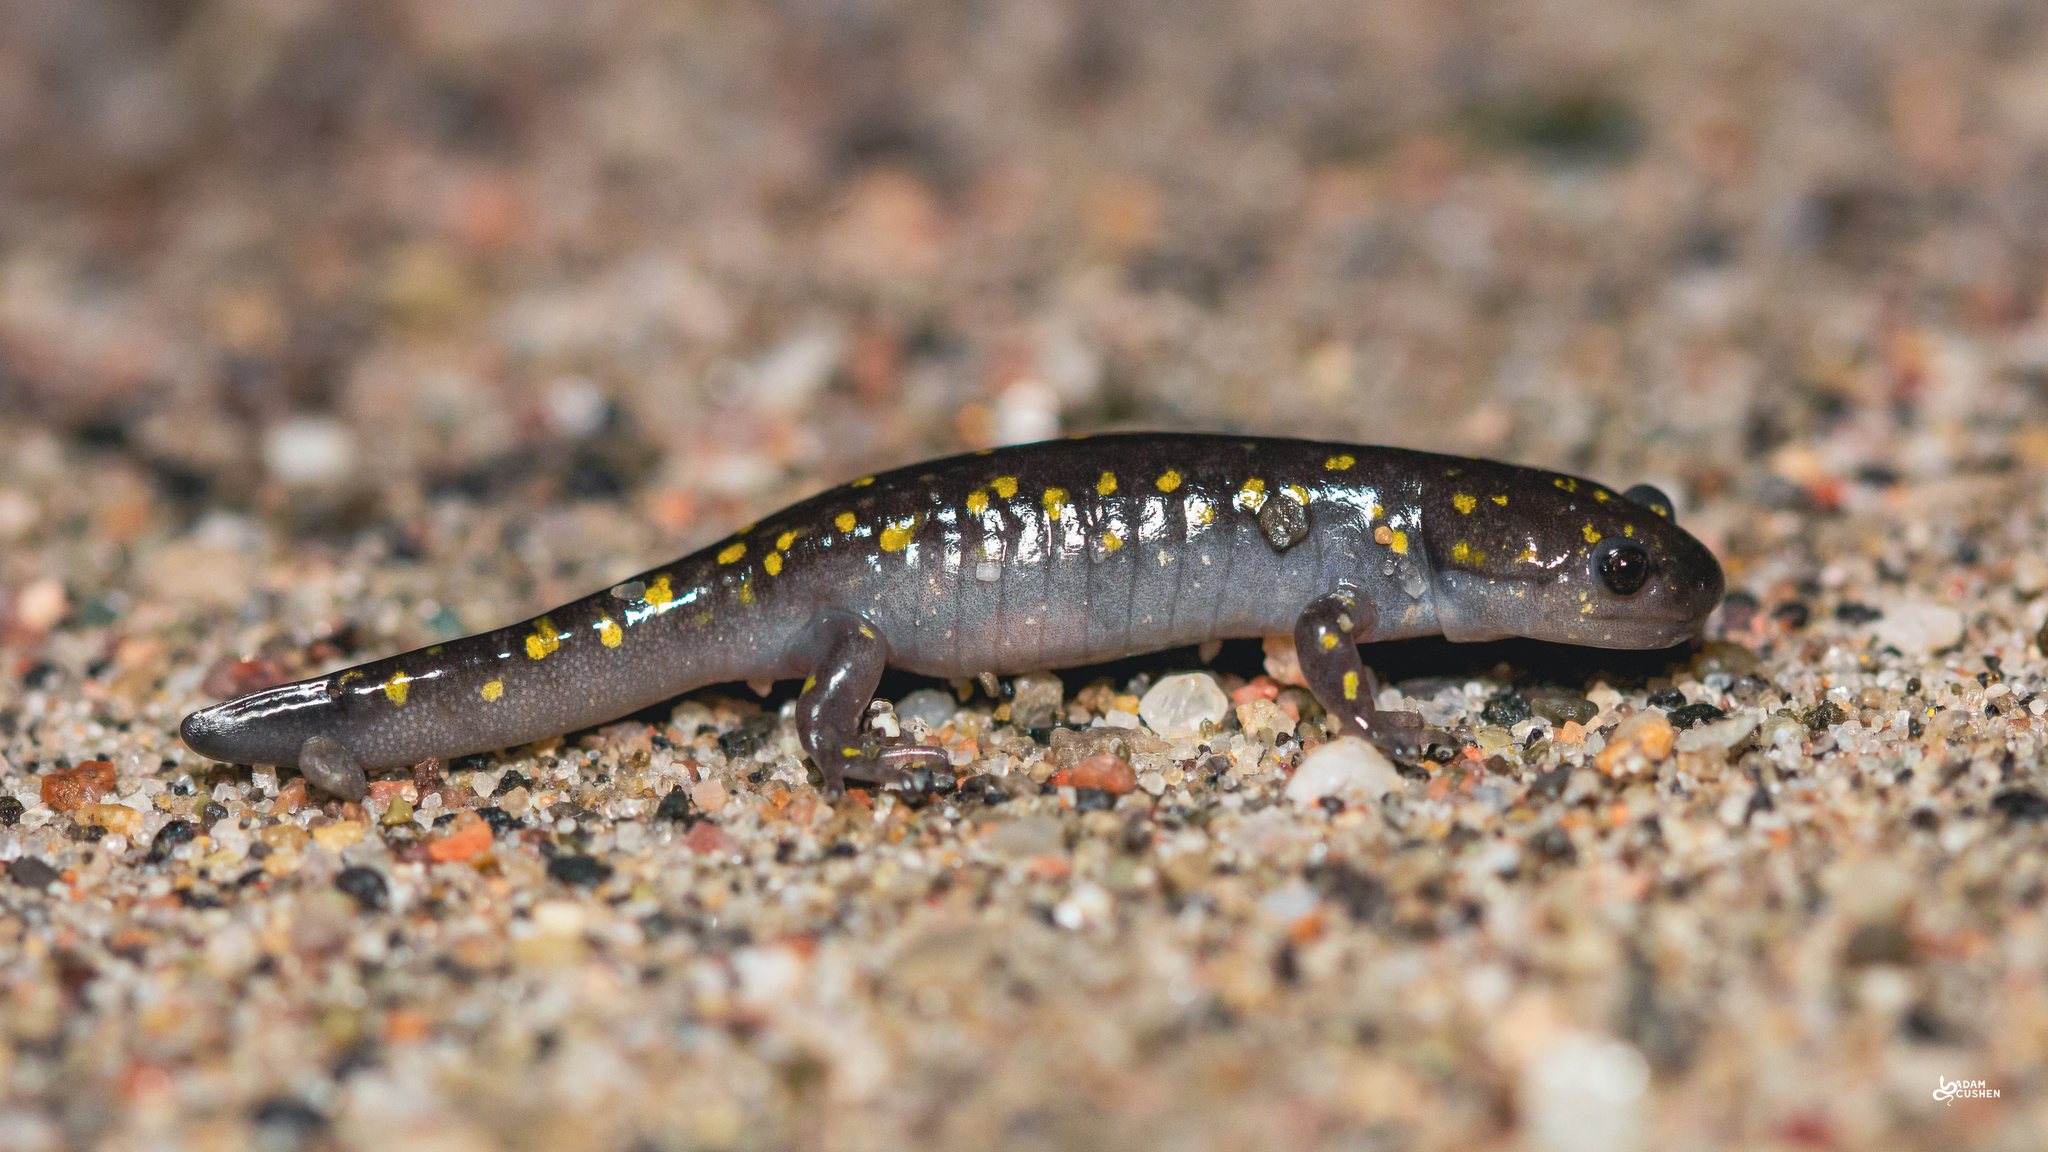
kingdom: Animalia
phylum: Chordata
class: Amphibia
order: Caudata
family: Ambystomatidae
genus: Ambystoma
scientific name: Ambystoma maculatum
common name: Spotted salamander
